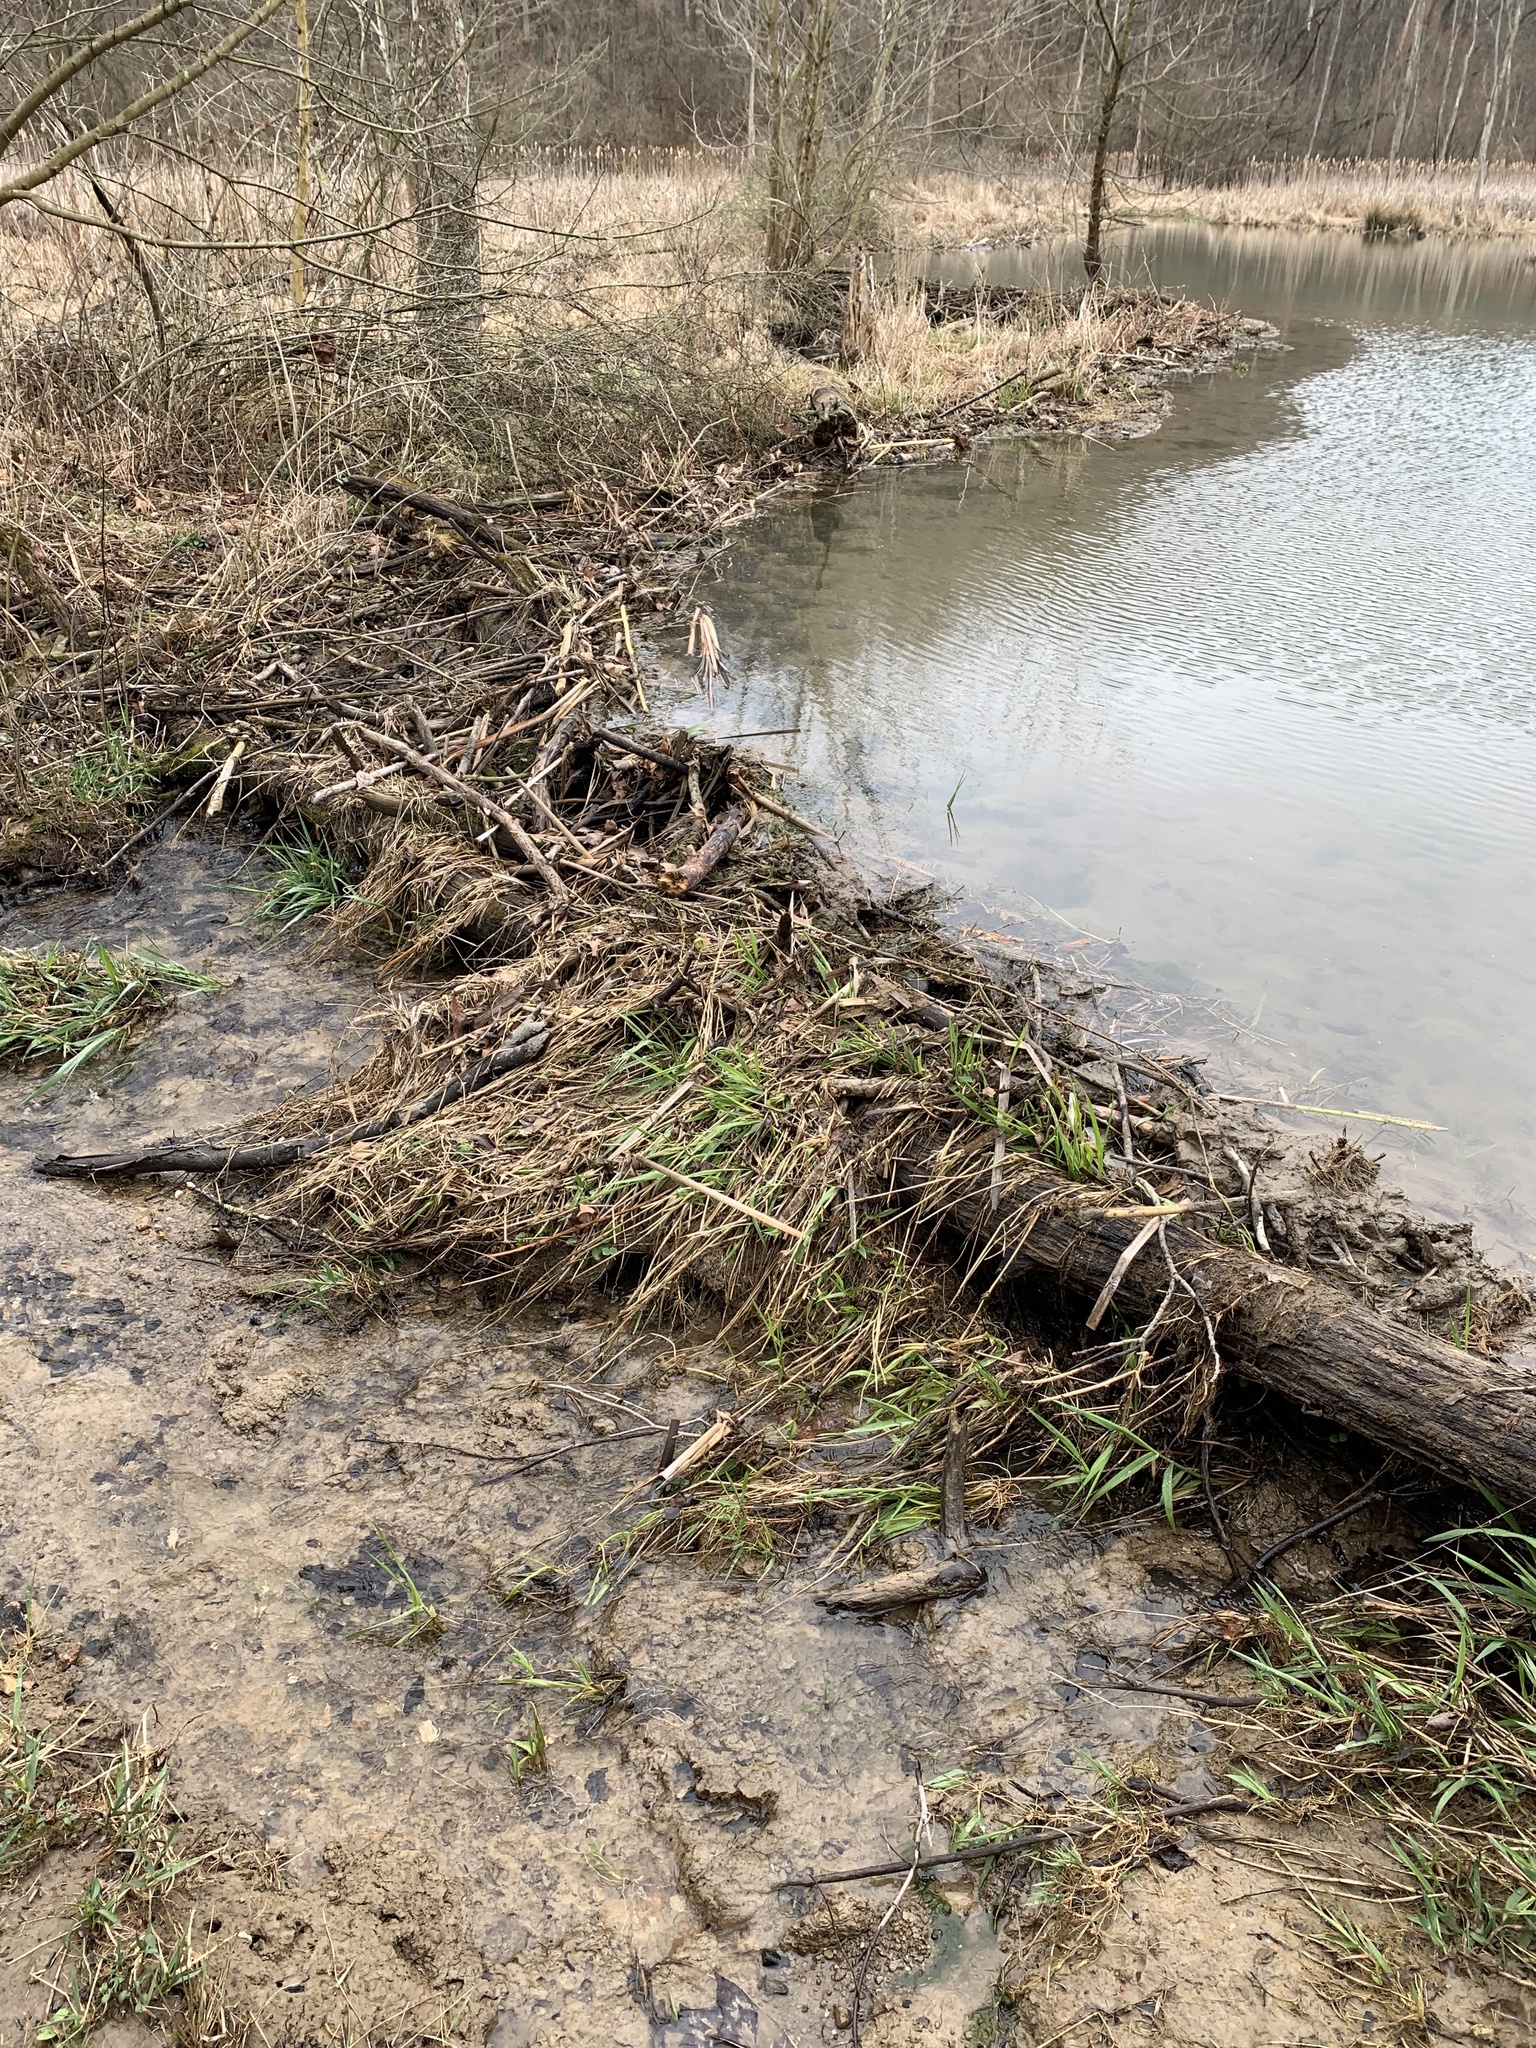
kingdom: Animalia
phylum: Chordata
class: Mammalia
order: Rodentia
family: Castoridae
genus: Castor
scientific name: Castor canadensis
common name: American beaver
